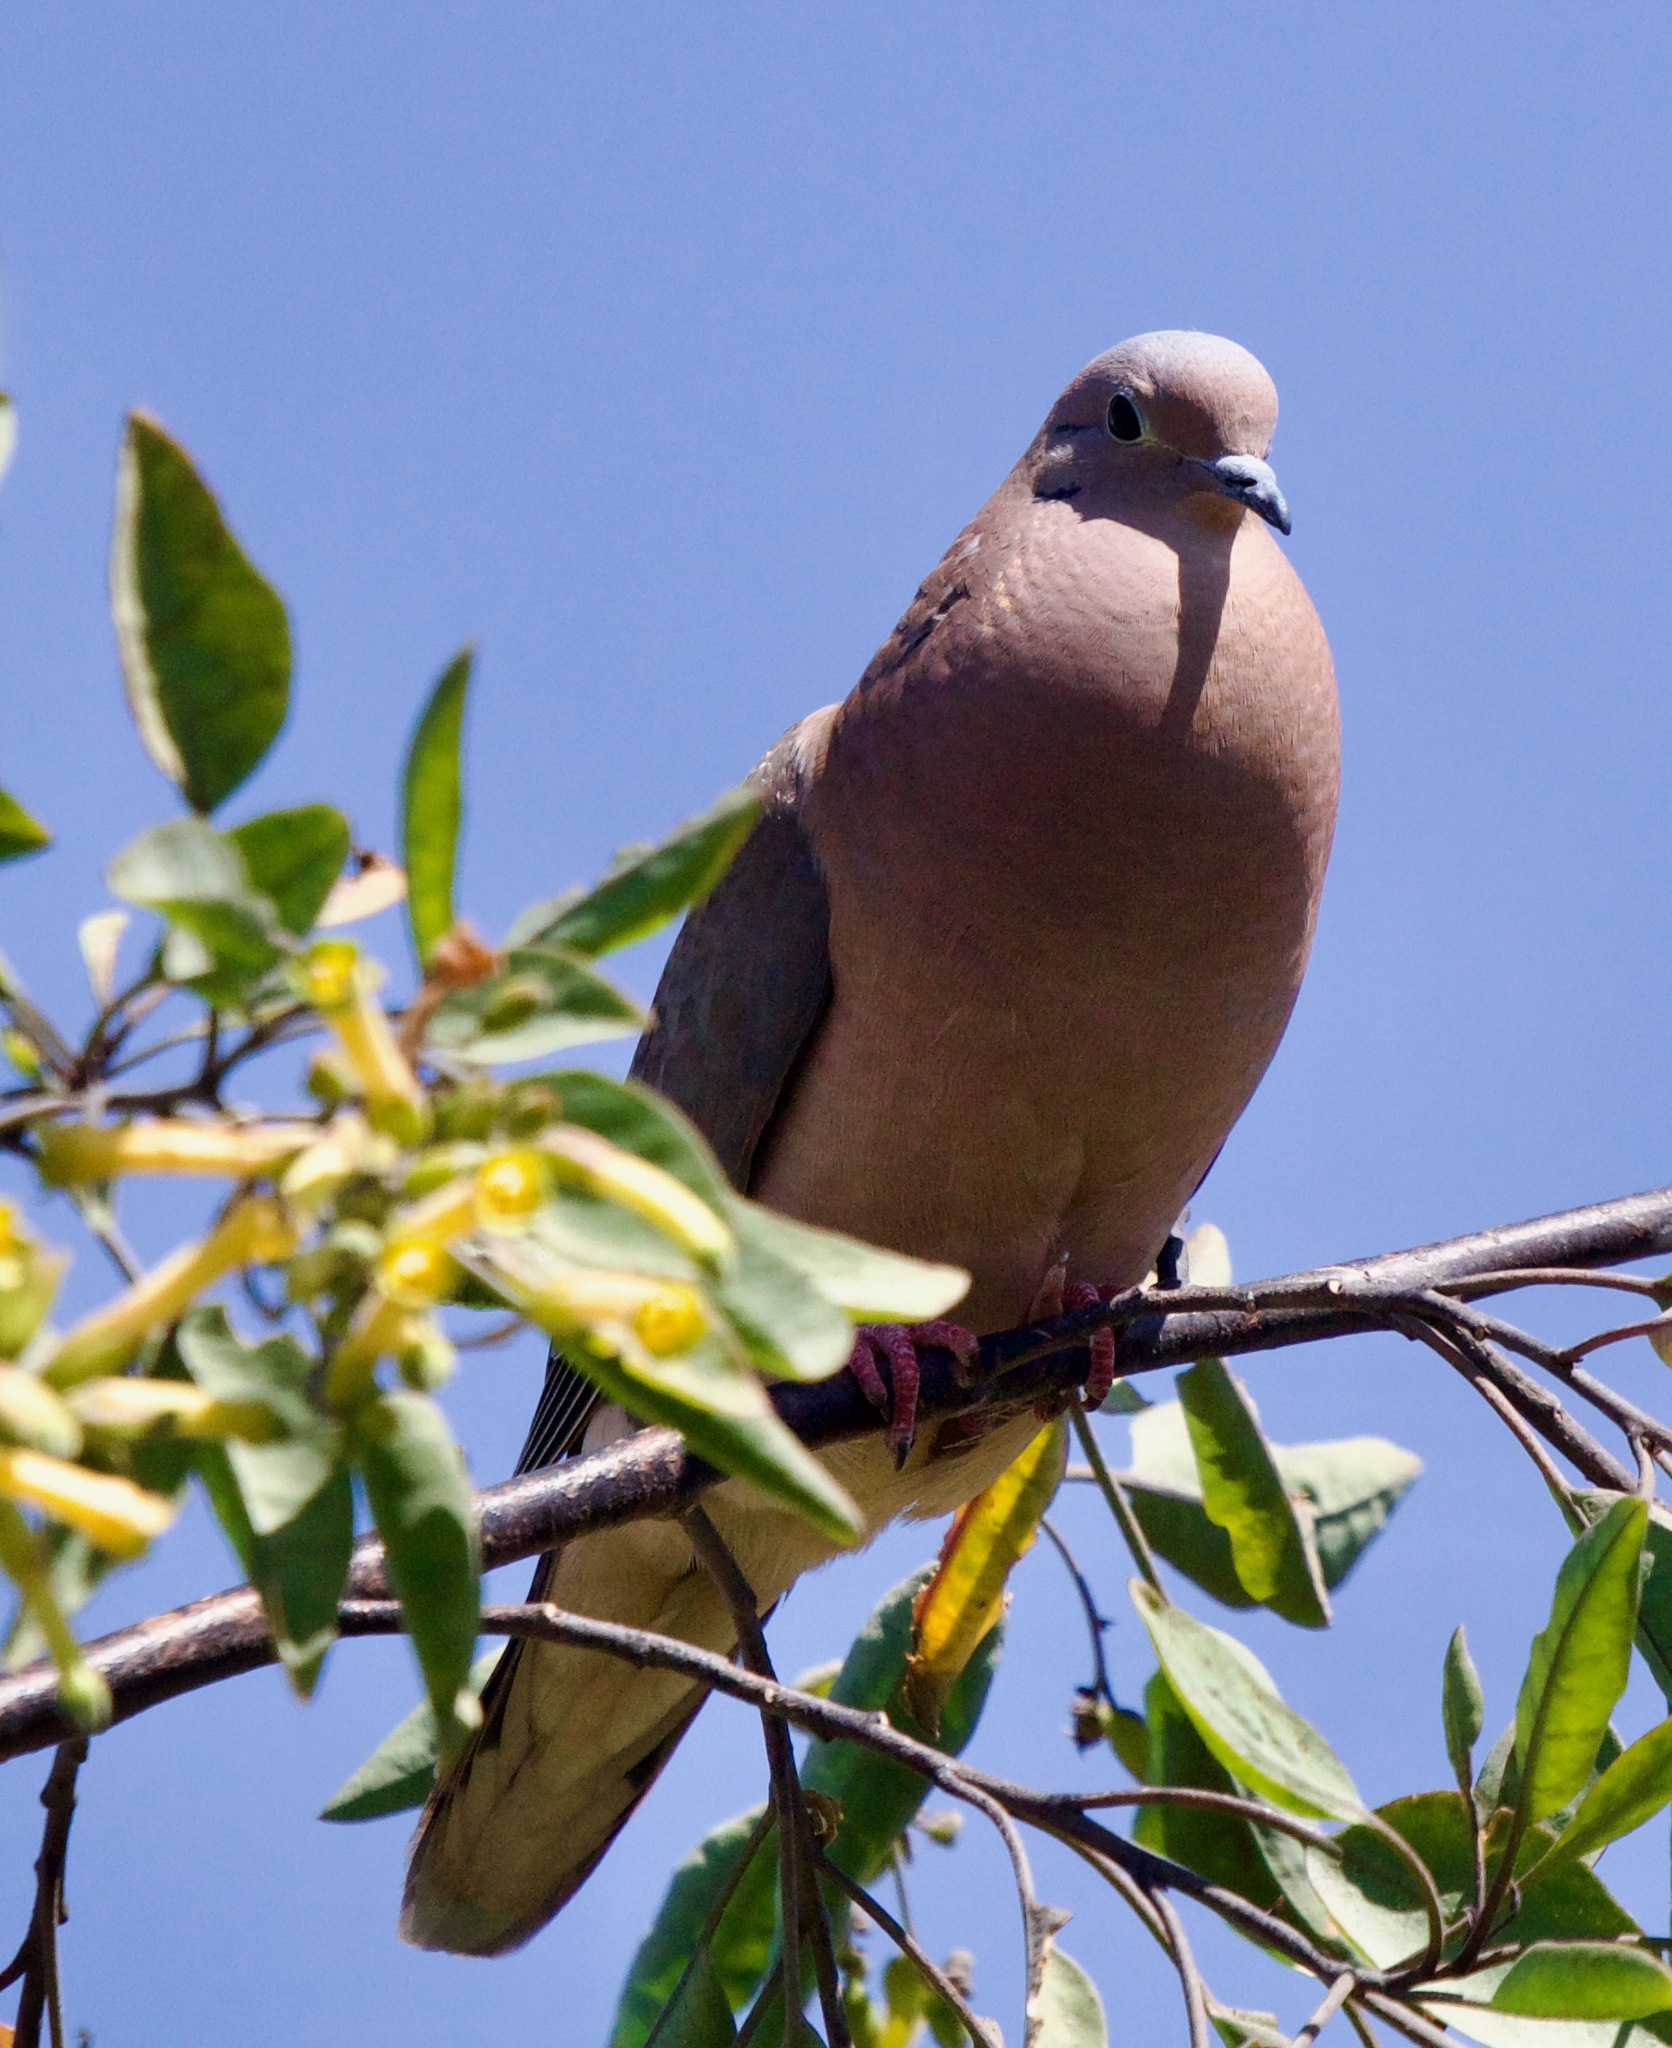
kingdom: Animalia
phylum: Chordata
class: Aves
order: Columbiformes
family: Columbidae
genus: Zenaida
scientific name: Zenaida auriculata
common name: Eared dove
